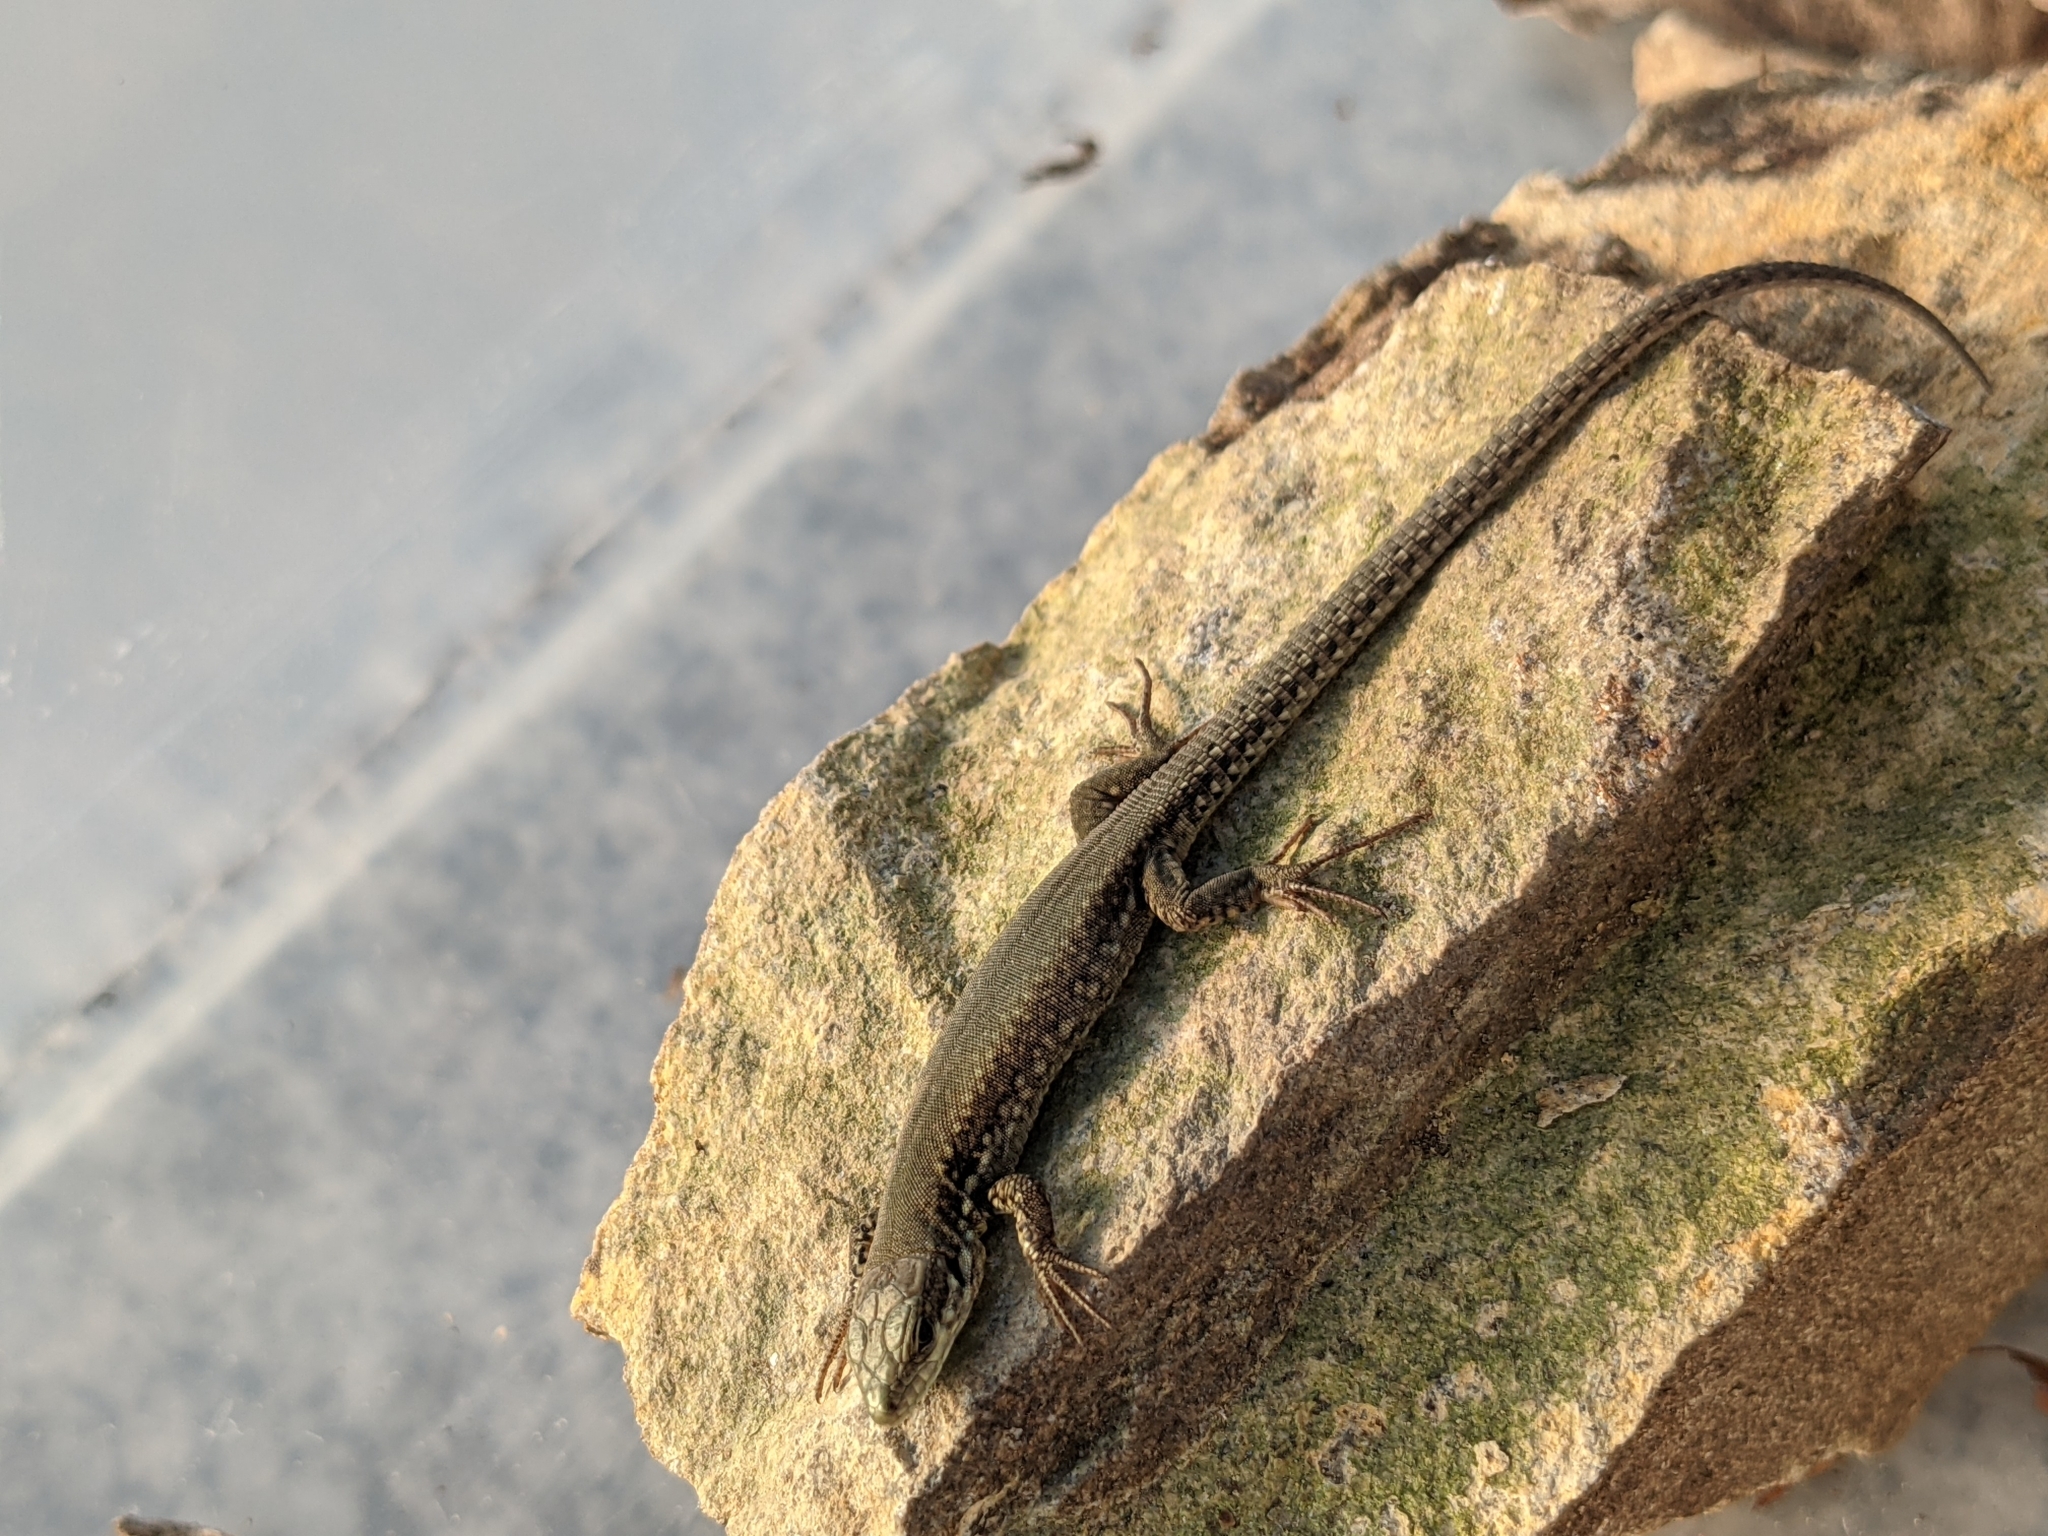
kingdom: Animalia
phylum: Chordata
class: Squamata
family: Lacertidae
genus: Podarcis
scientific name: Podarcis muralis
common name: Common wall lizard
